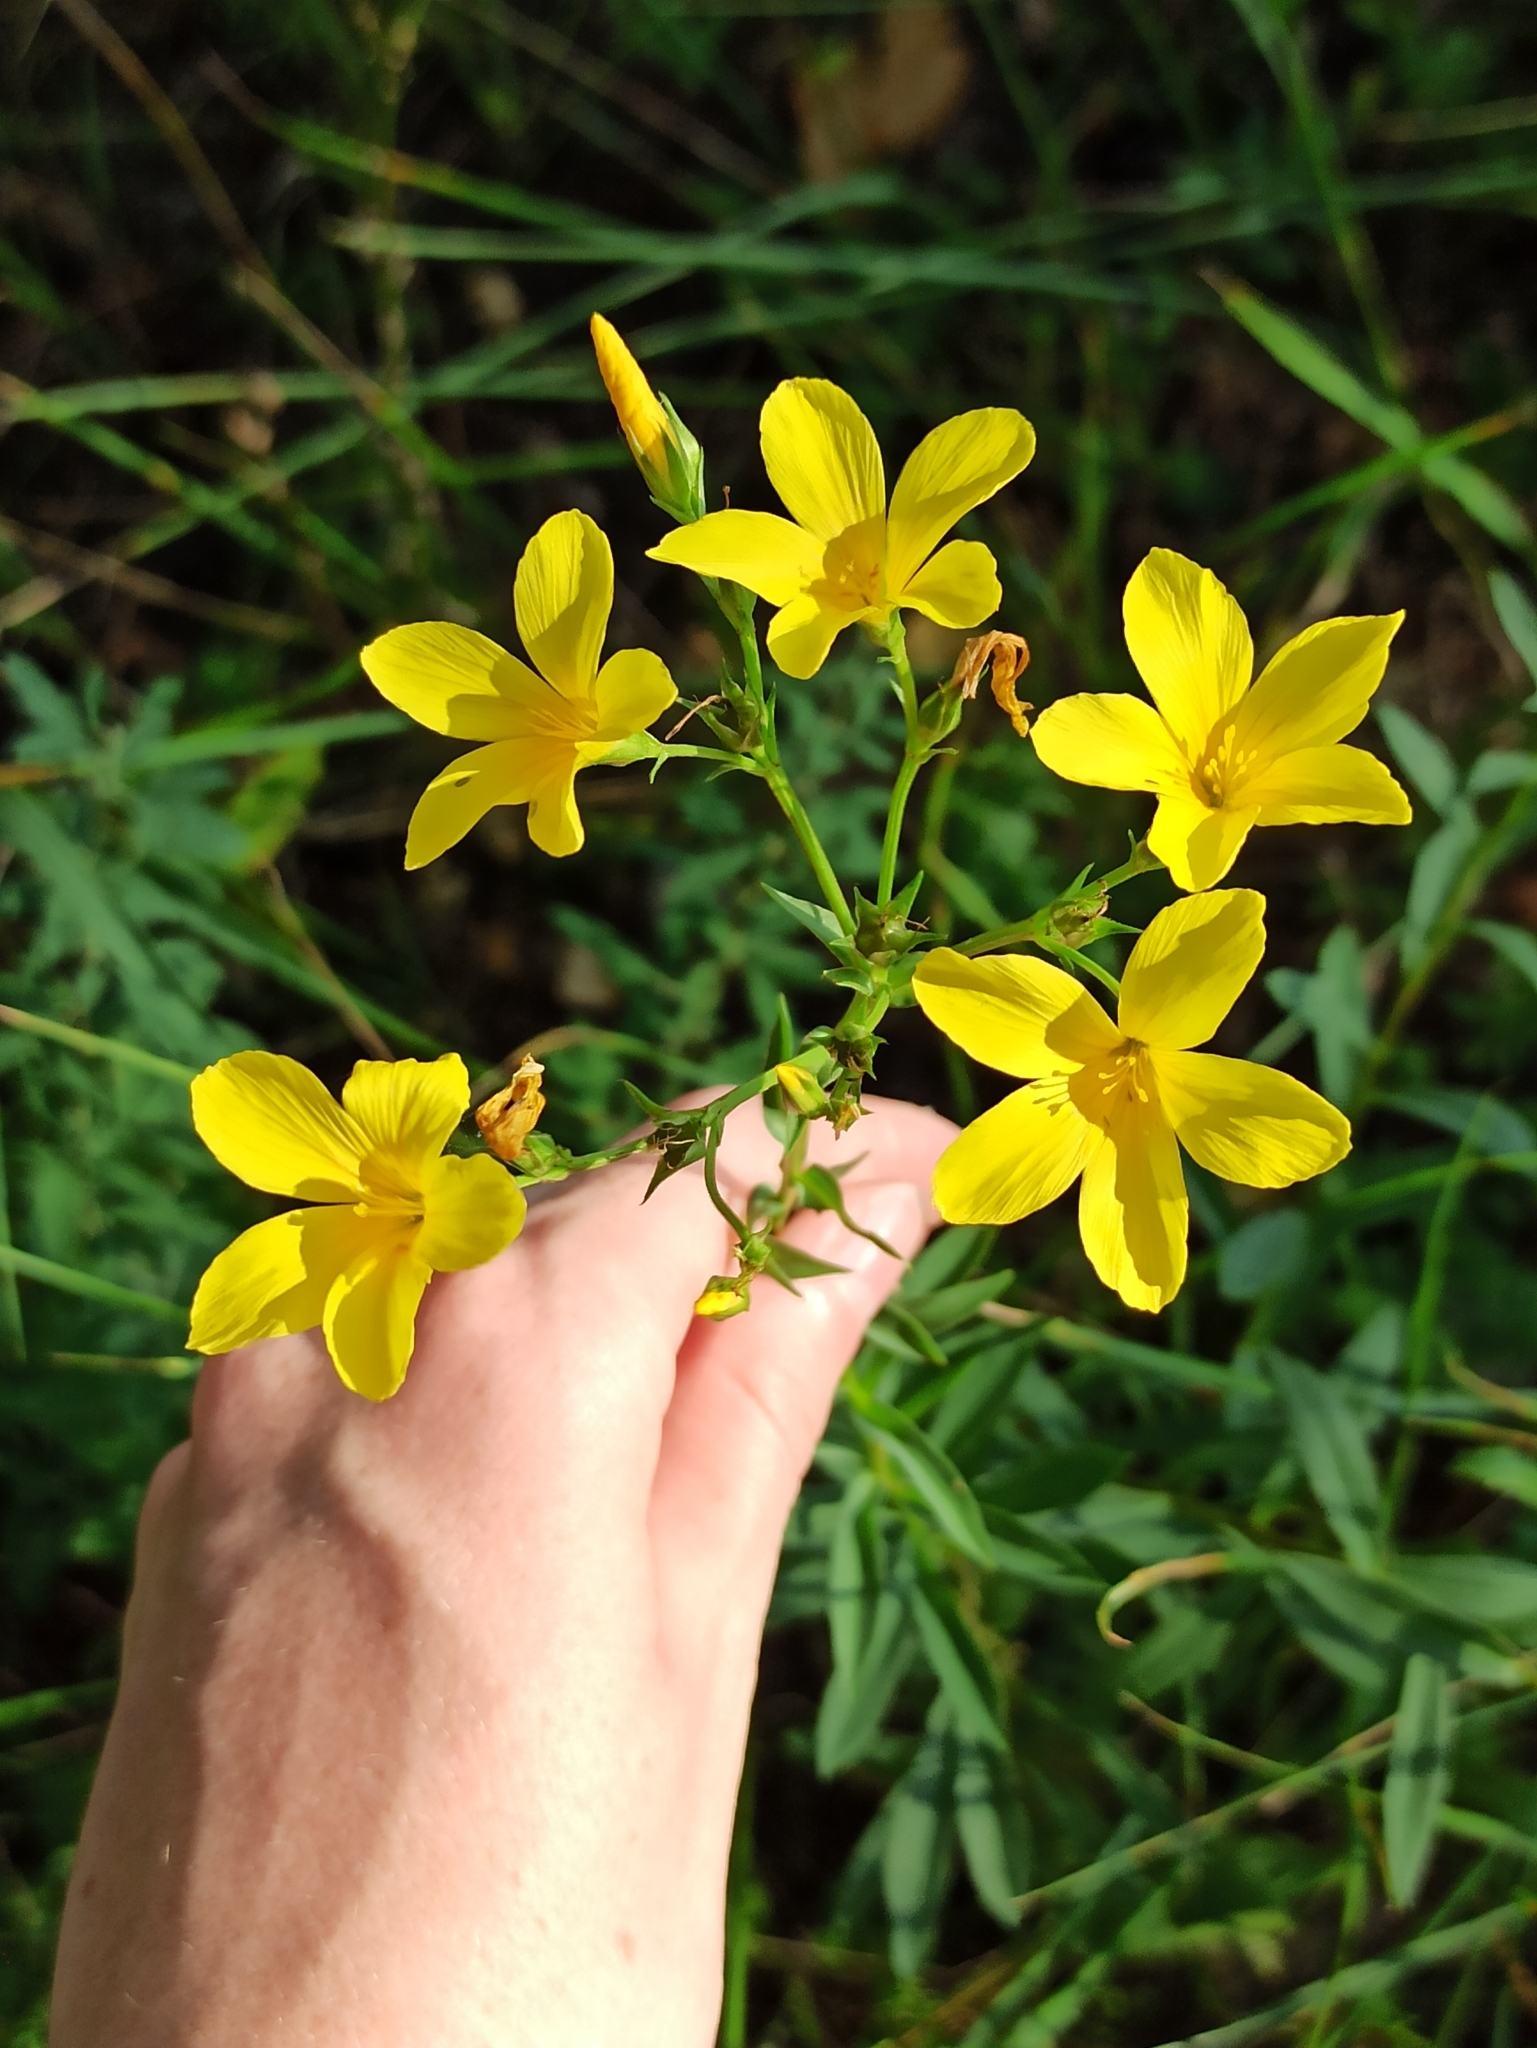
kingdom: Plantae
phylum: Tracheophyta
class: Magnoliopsida
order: Malpighiales
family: Linaceae
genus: Linum
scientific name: Linum flavum
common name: Yellow flax
